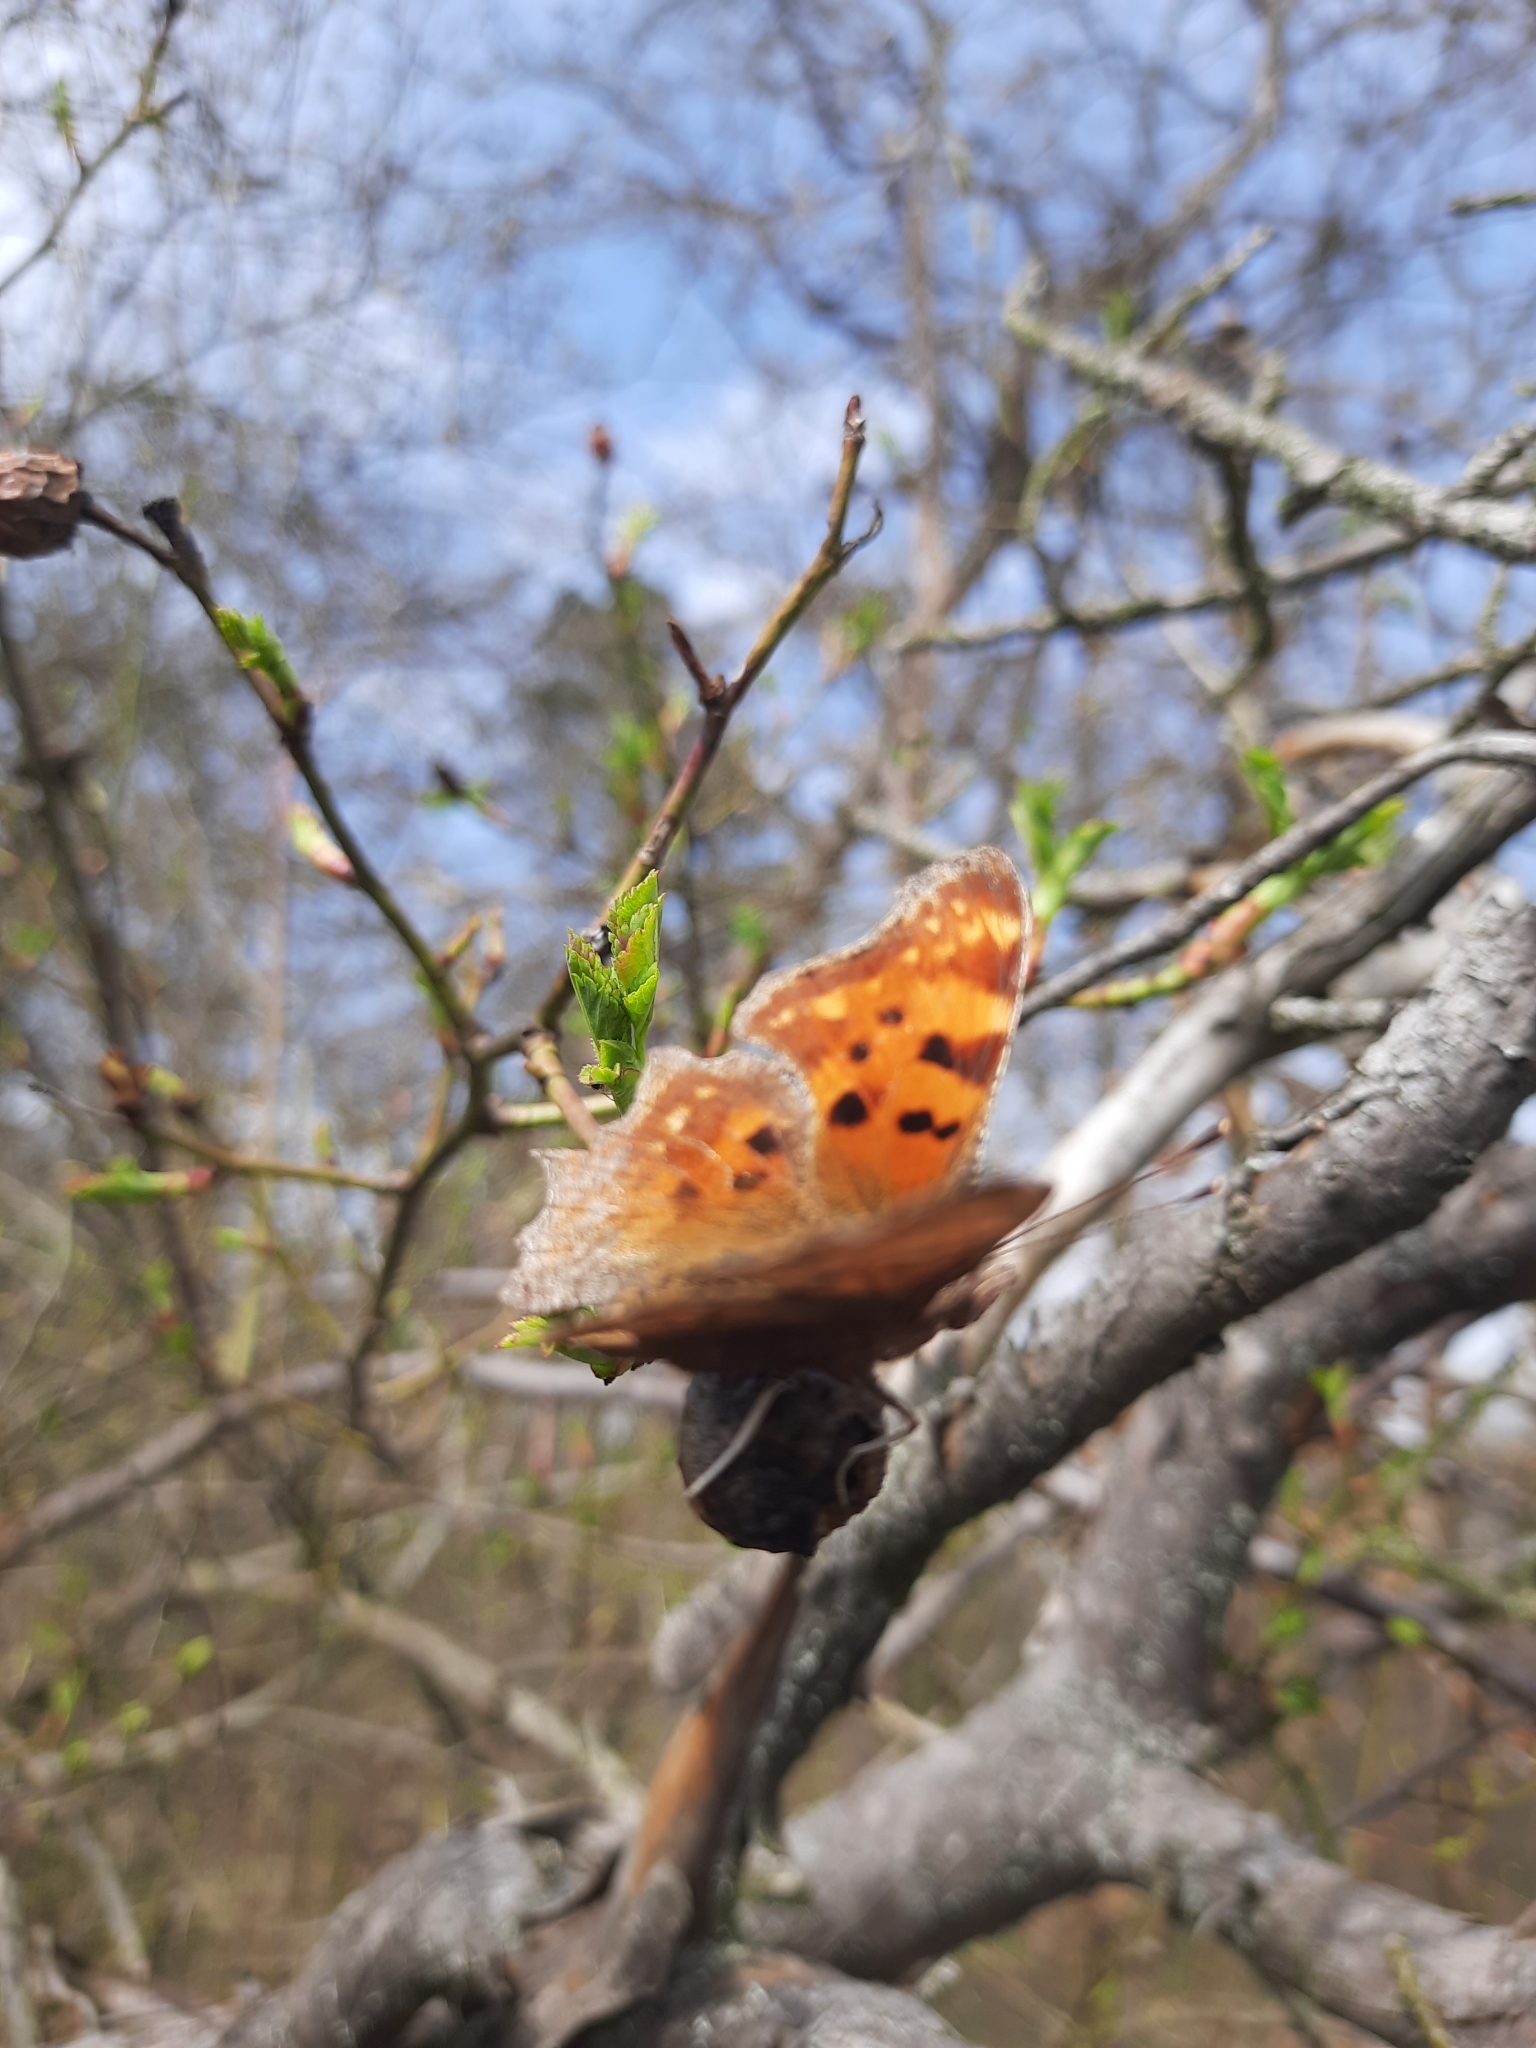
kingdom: Animalia
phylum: Arthropoda
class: Insecta
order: Lepidoptera
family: Nymphalidae
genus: Polygonia
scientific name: Polygonia c-album
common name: Comma
